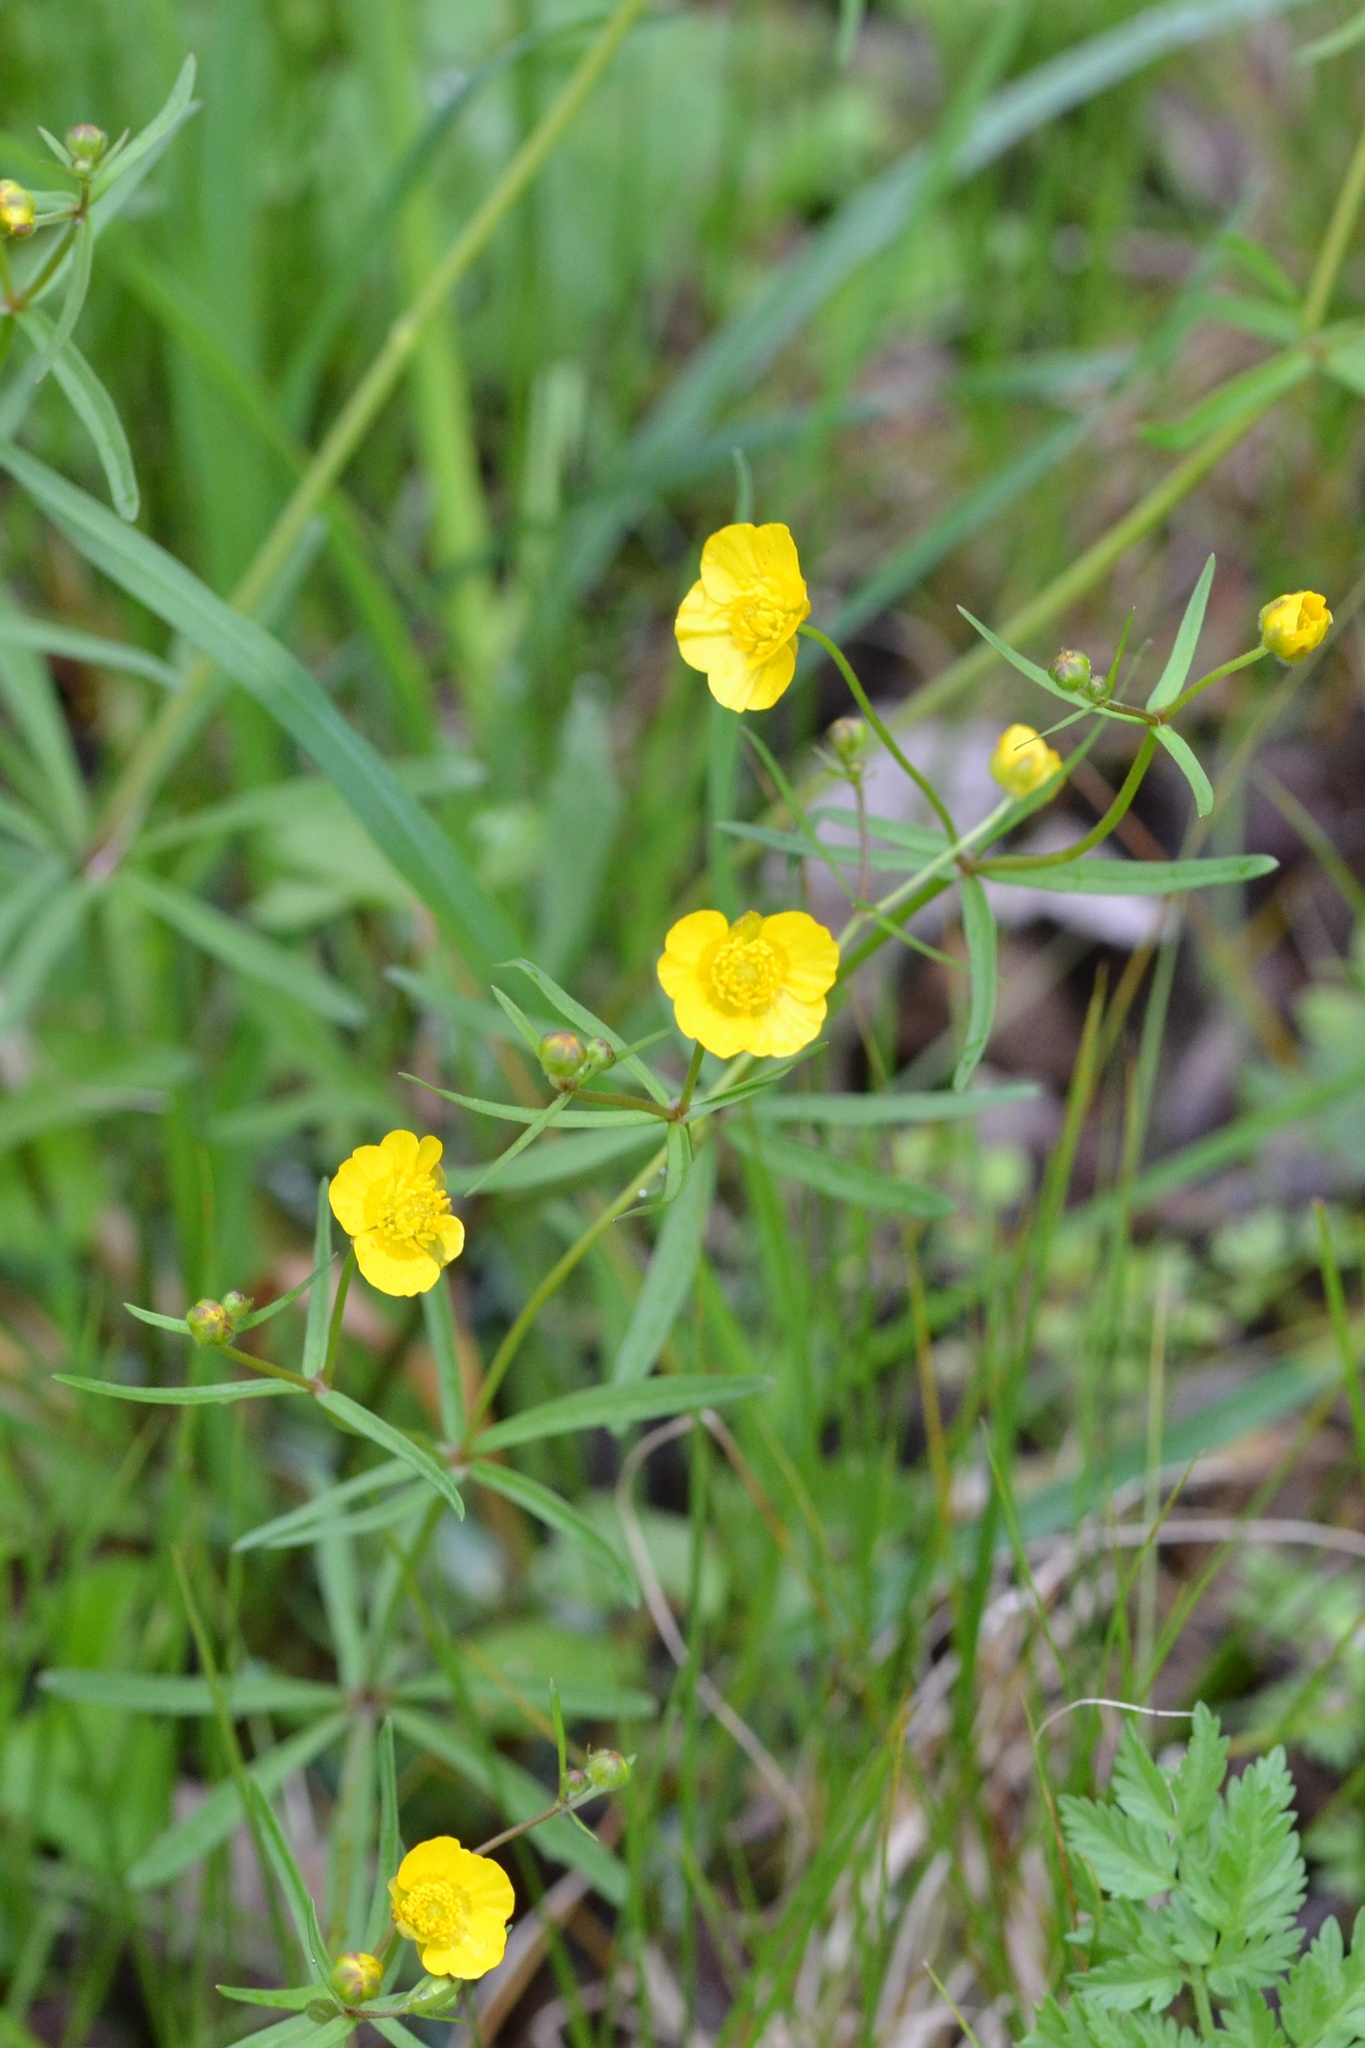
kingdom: Plantae
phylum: Tracheophyta
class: Magnoliopsida
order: Ranunculales
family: Ranunculaceae
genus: Ranunculus
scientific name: Ranunculus auricomus
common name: Goldilocks buttercup
